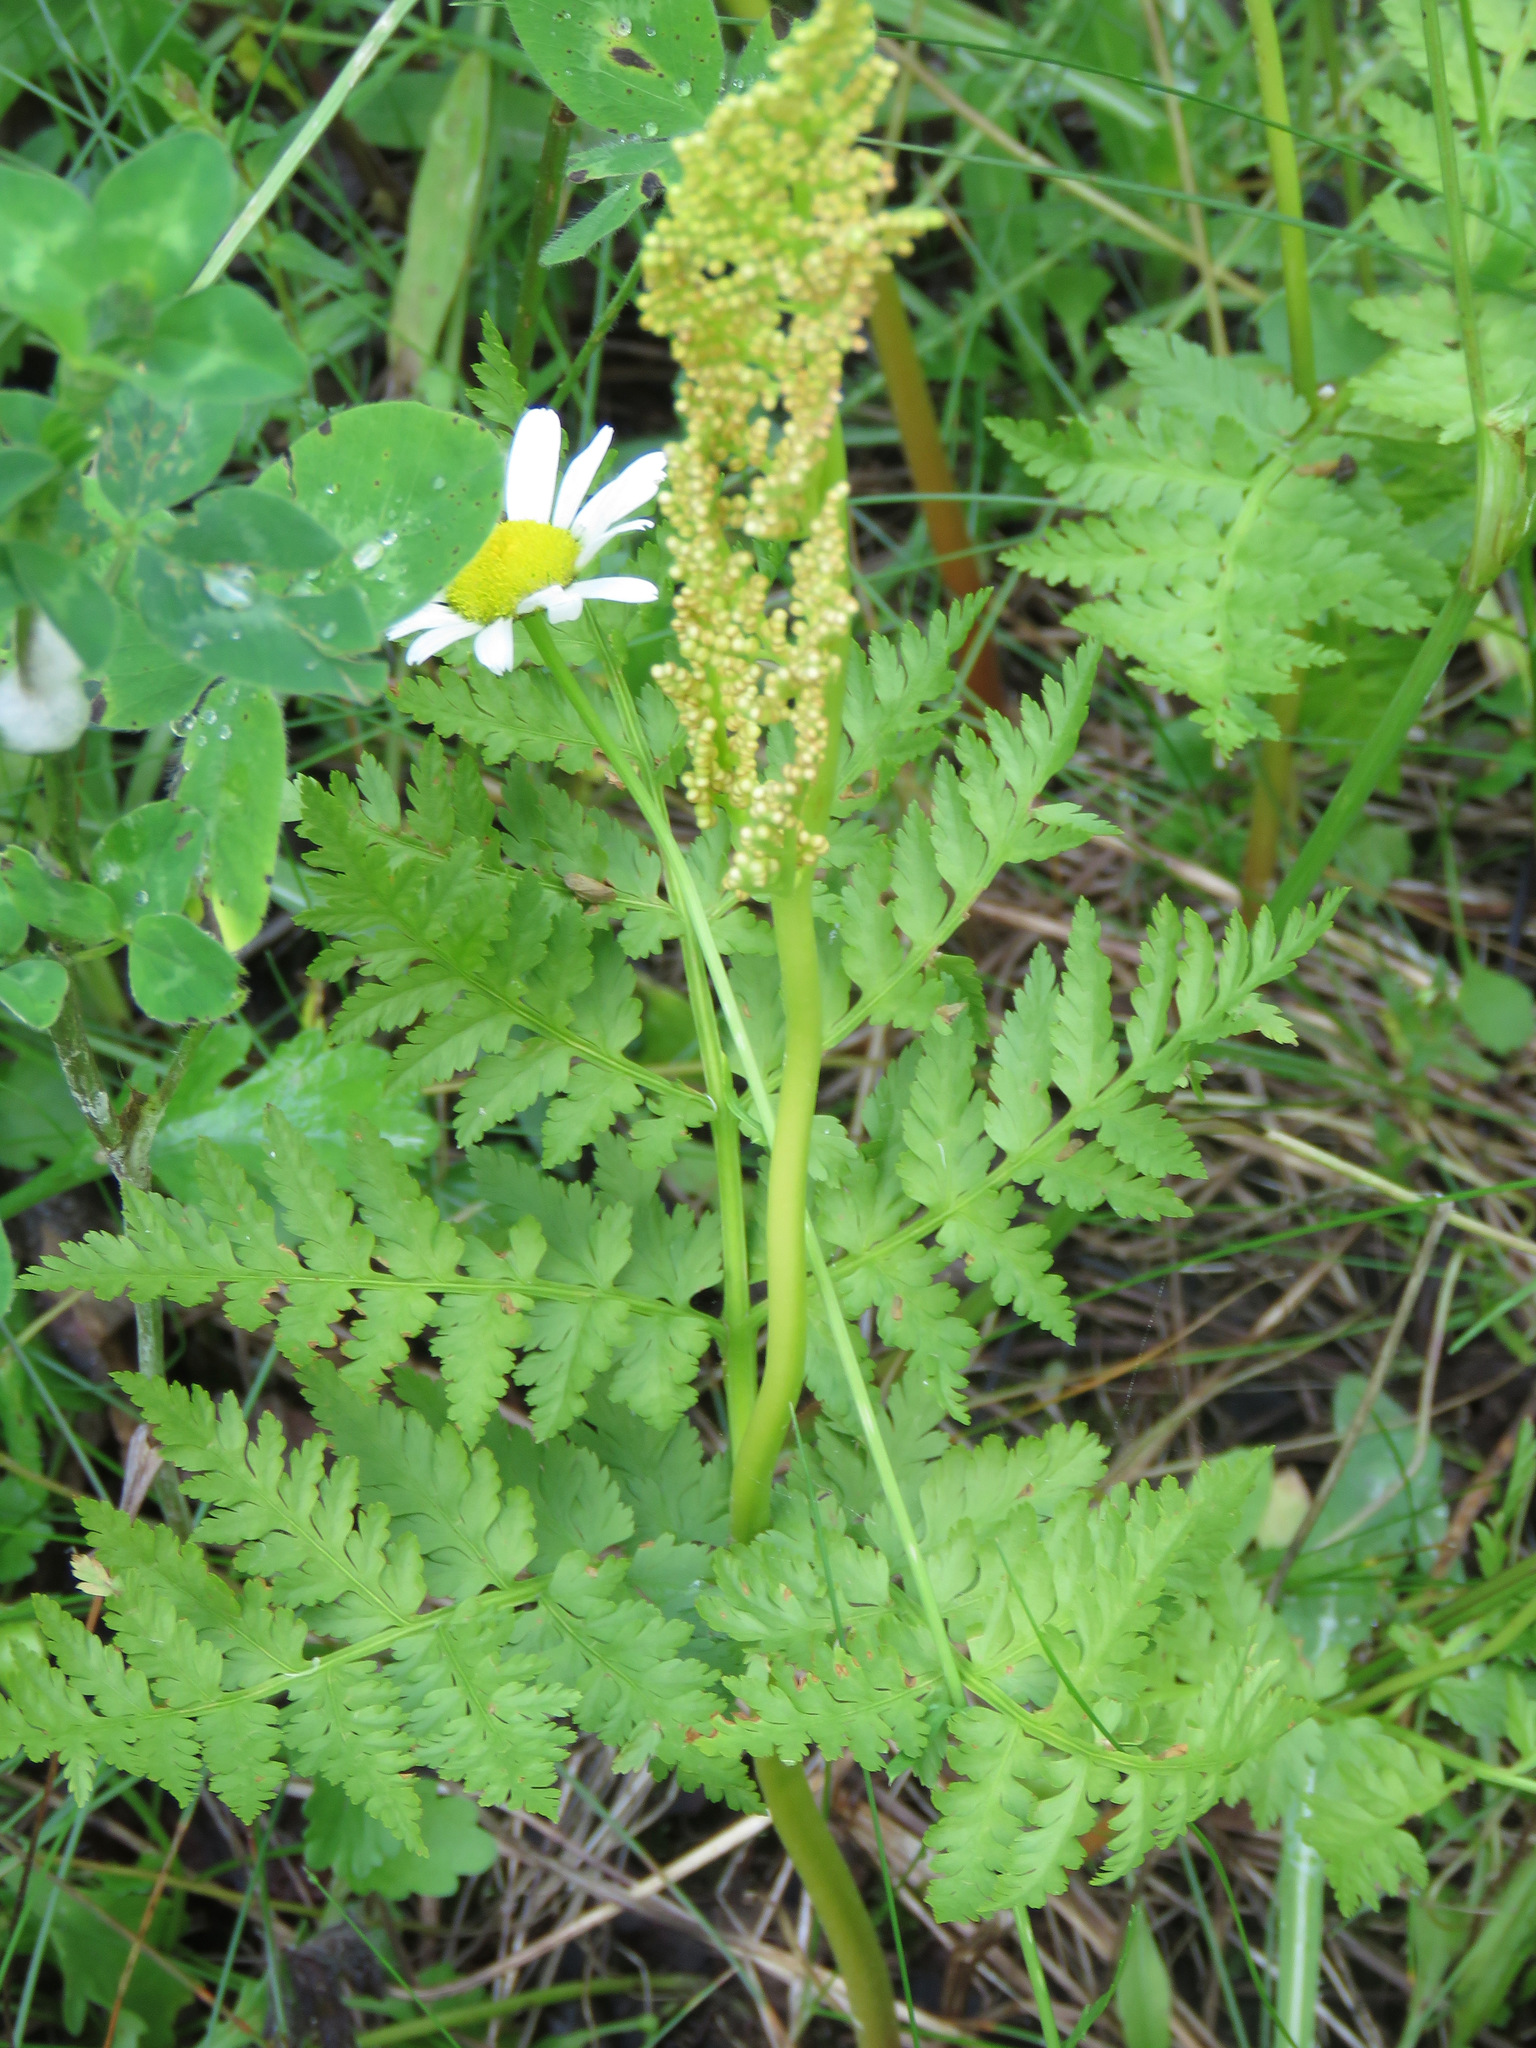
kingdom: Plantae
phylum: Tracheophyta
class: Polypodiopsida
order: Ophioglossales
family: Ophioglossaceae
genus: Botrypus
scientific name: Botrypus virginianus
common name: Common grapefern
